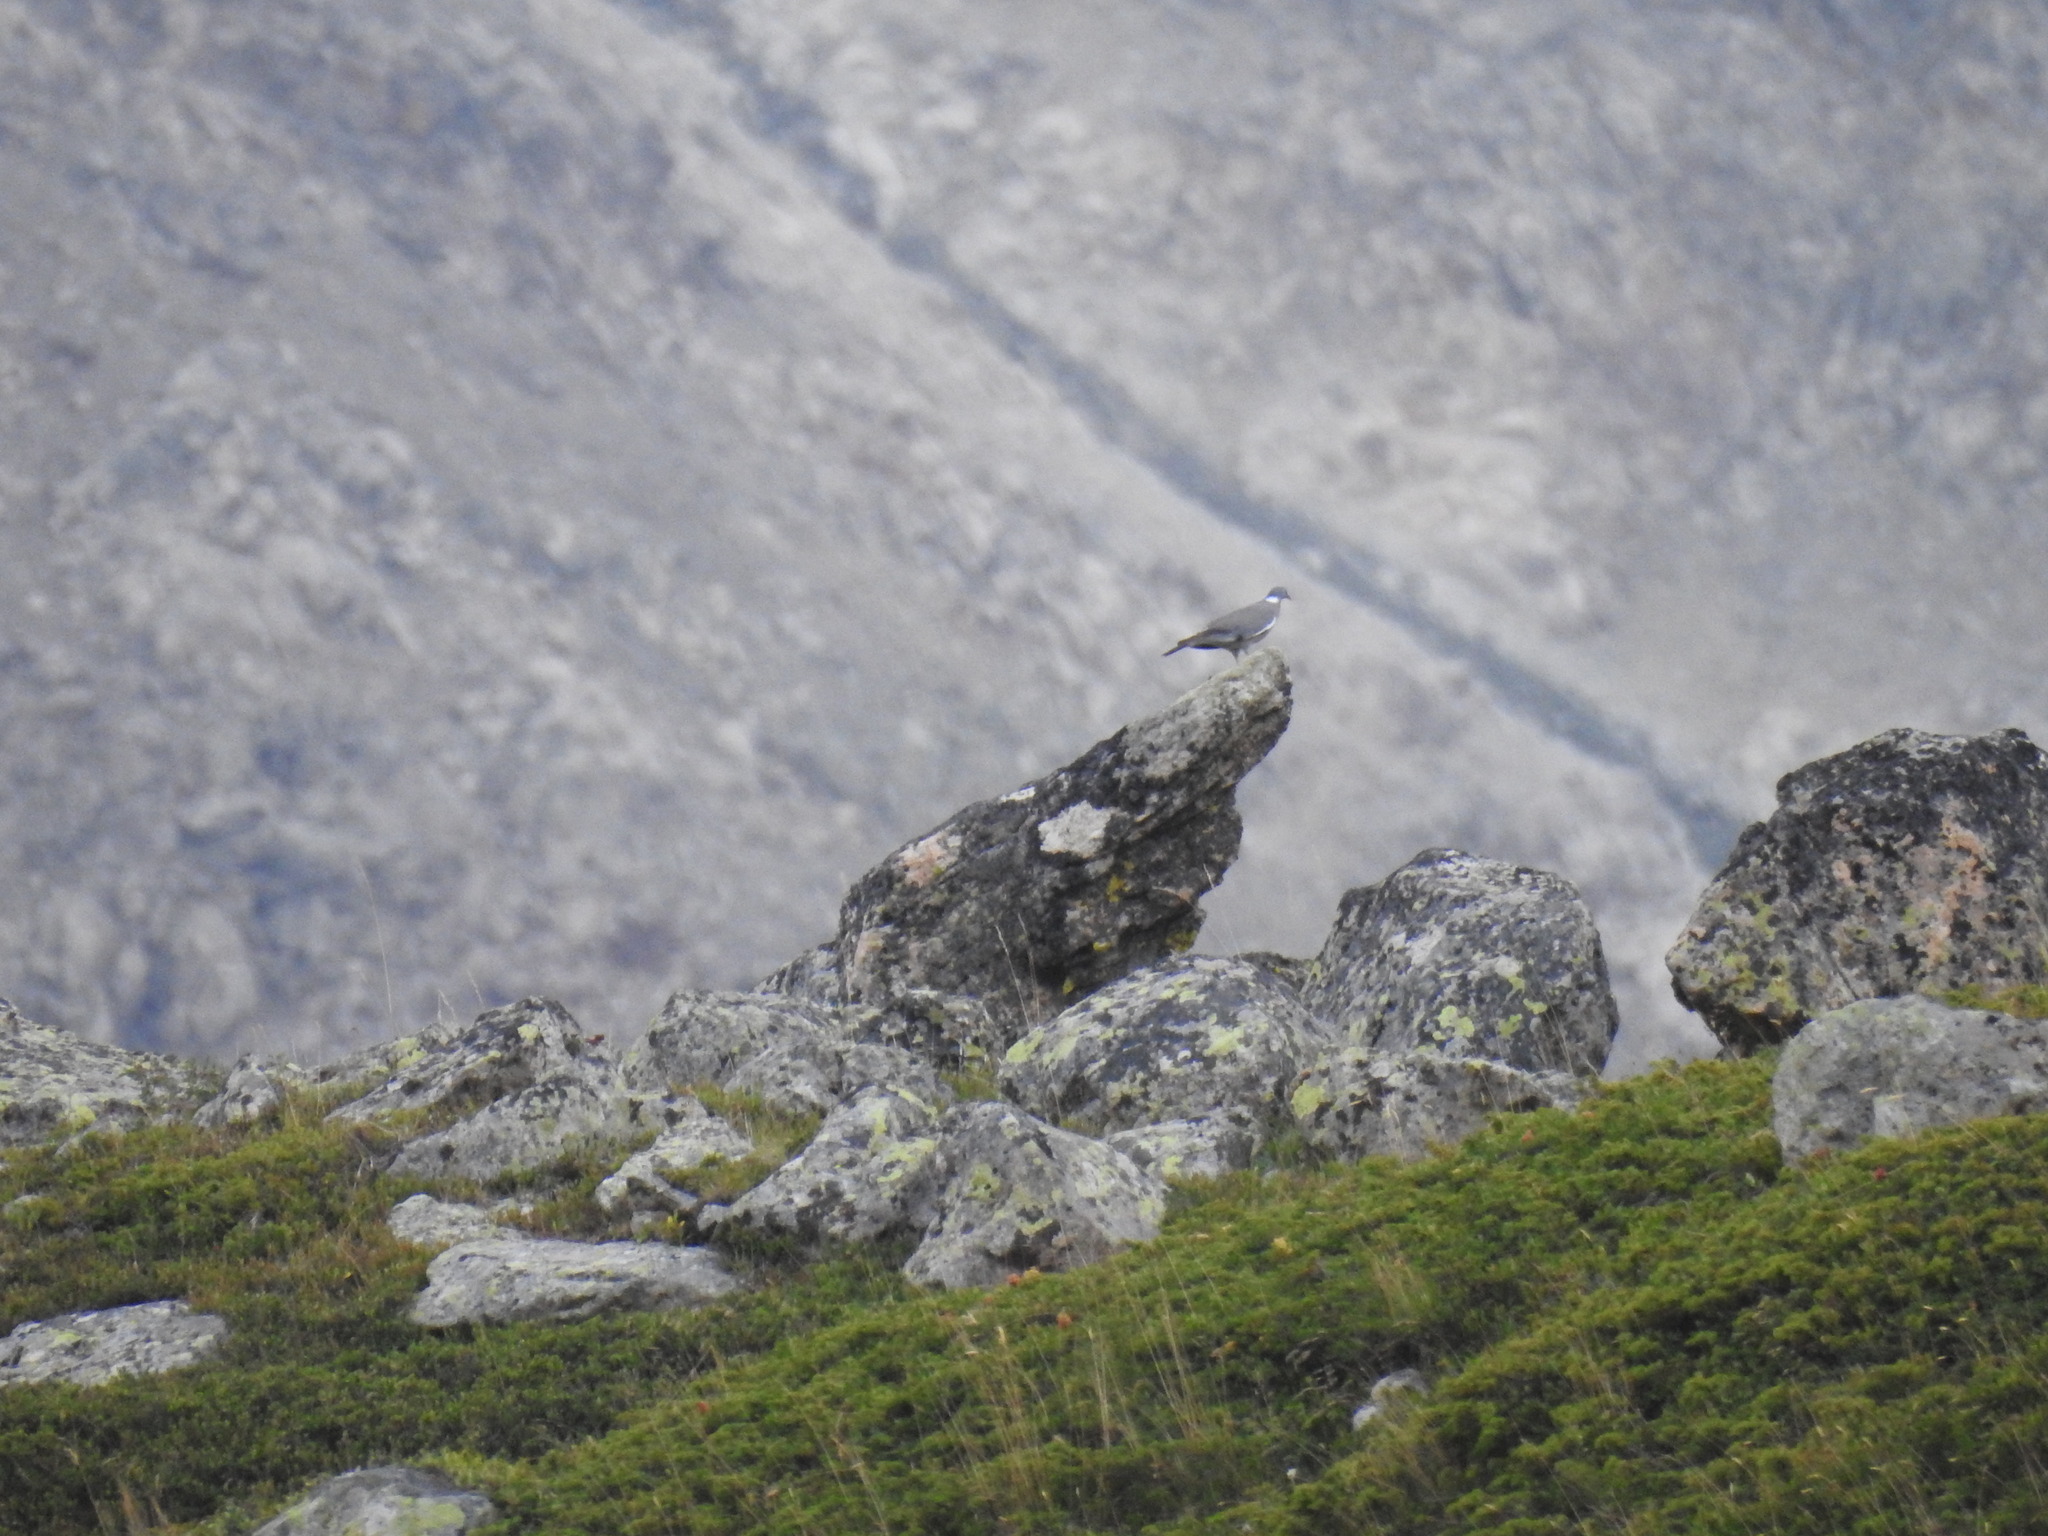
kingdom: Animalia
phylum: Chordata
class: Aves
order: Columbiformes
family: Columbidae
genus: Columba
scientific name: Columba palumbus
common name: Common wood pigeon
